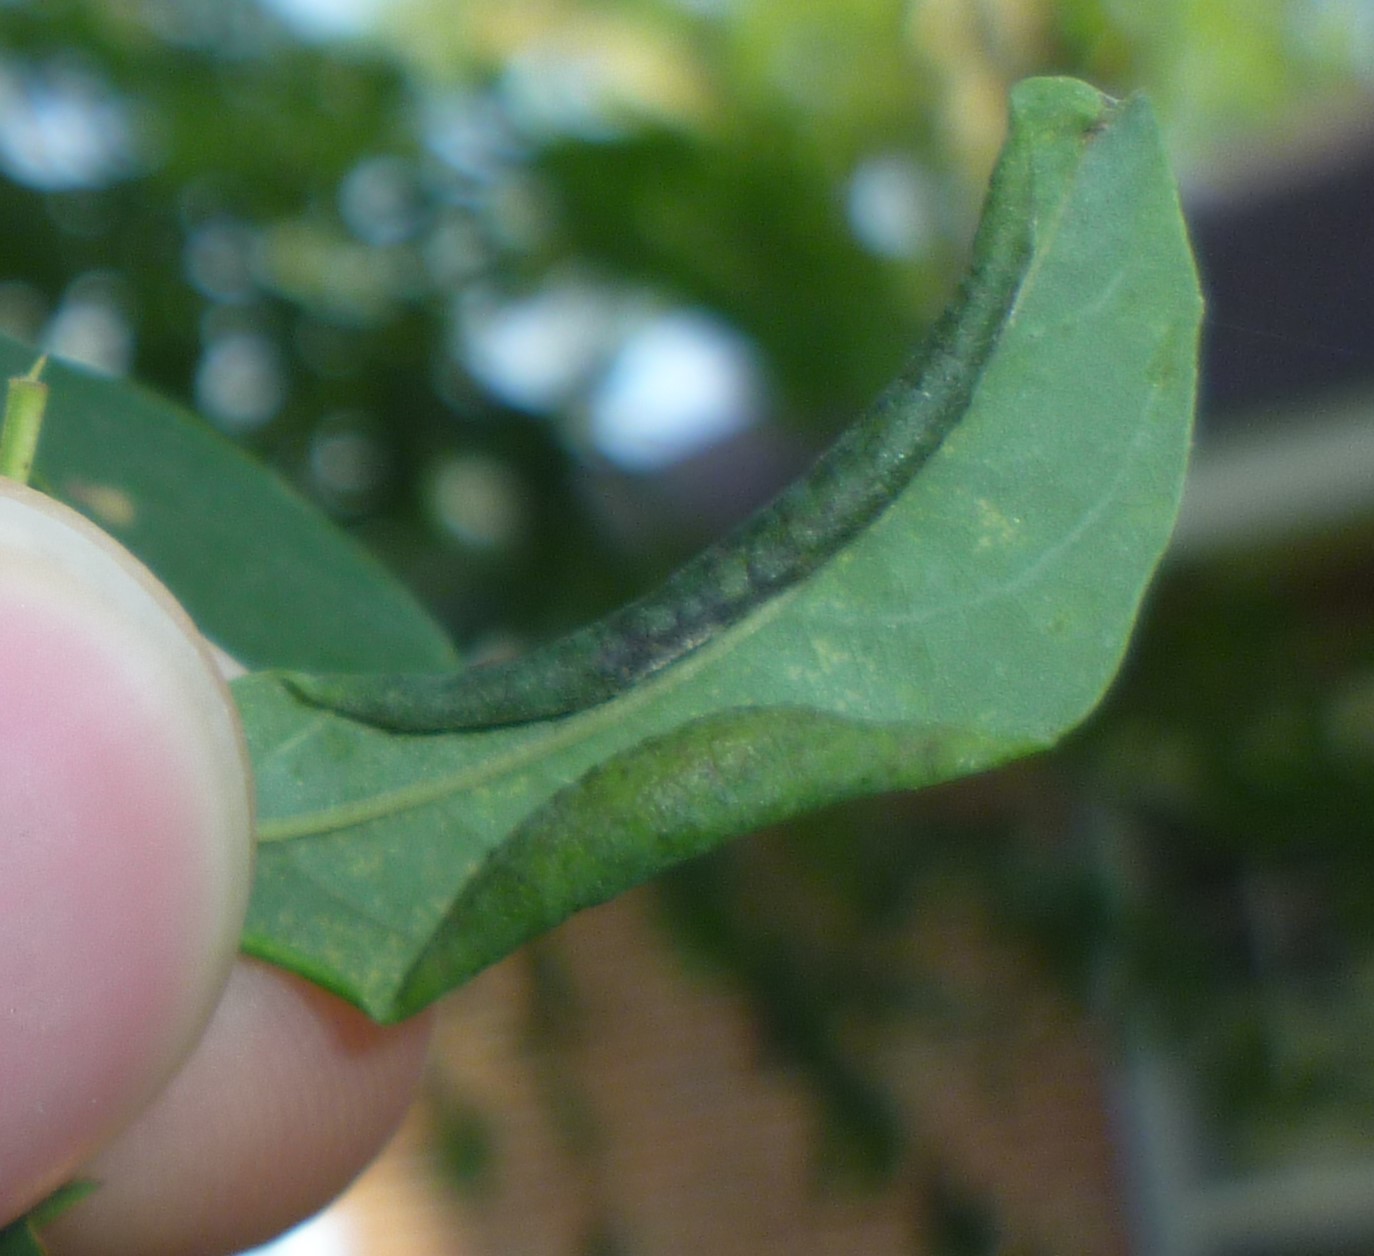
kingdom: Animalia
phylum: Arthropoda
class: Insecta
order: Diptera
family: Cecidomyiidae
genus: Obolodiplosis
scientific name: Obolodiplosis robiniae
